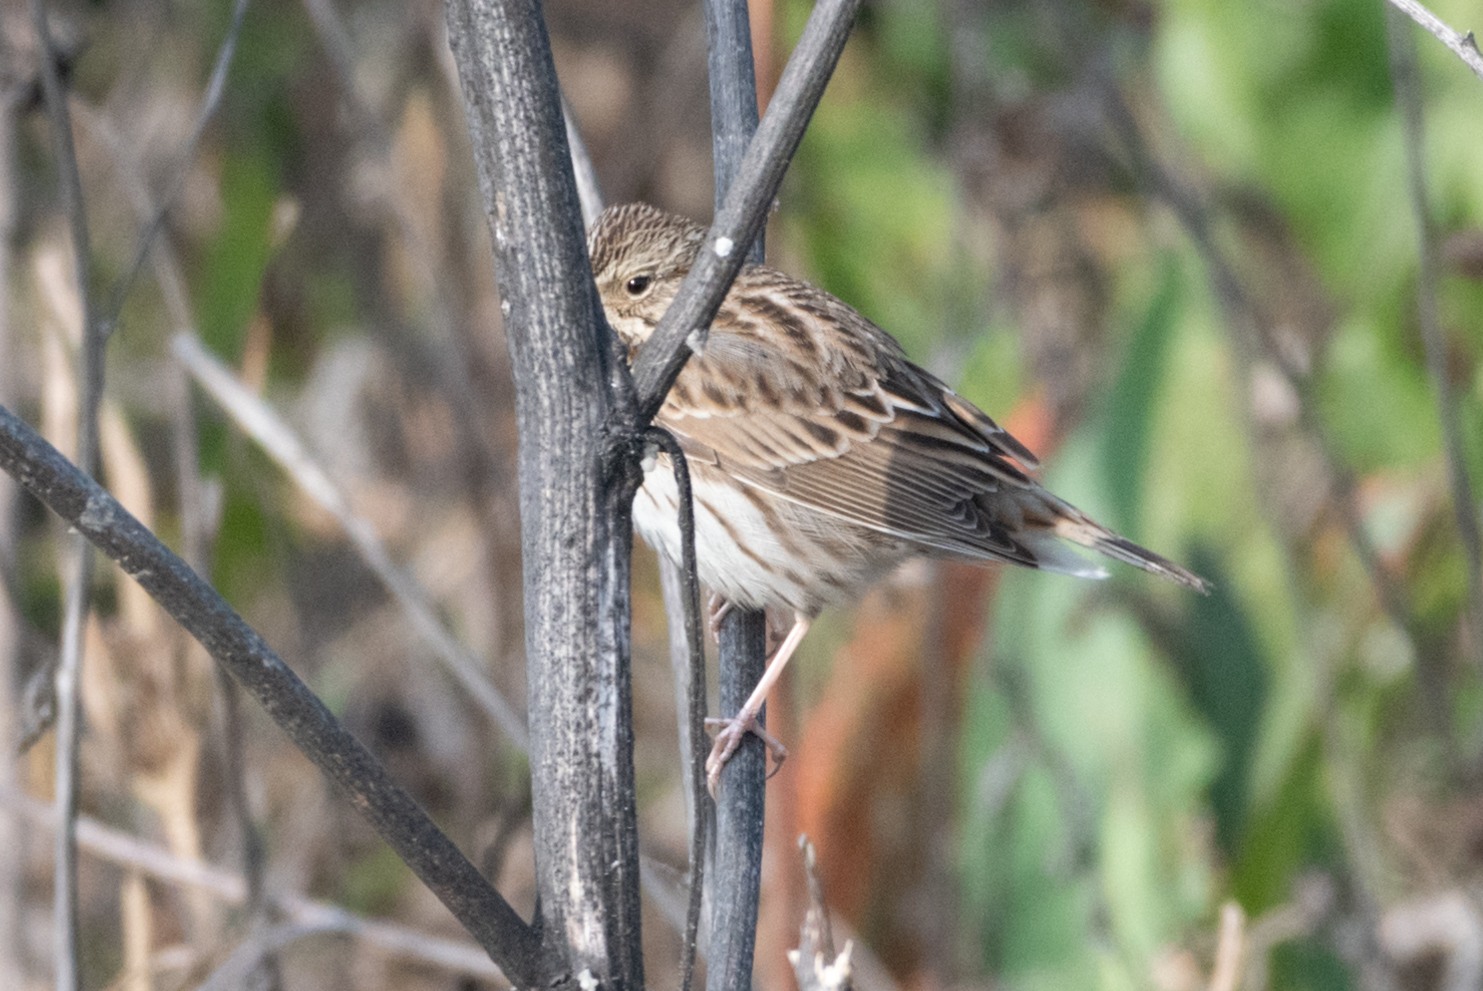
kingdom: Animalia
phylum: Chordata
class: Aves
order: Passeriformes
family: Passerellidae
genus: Passerculus
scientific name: Passerculus sandwichensis
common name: Savannah sparrow
